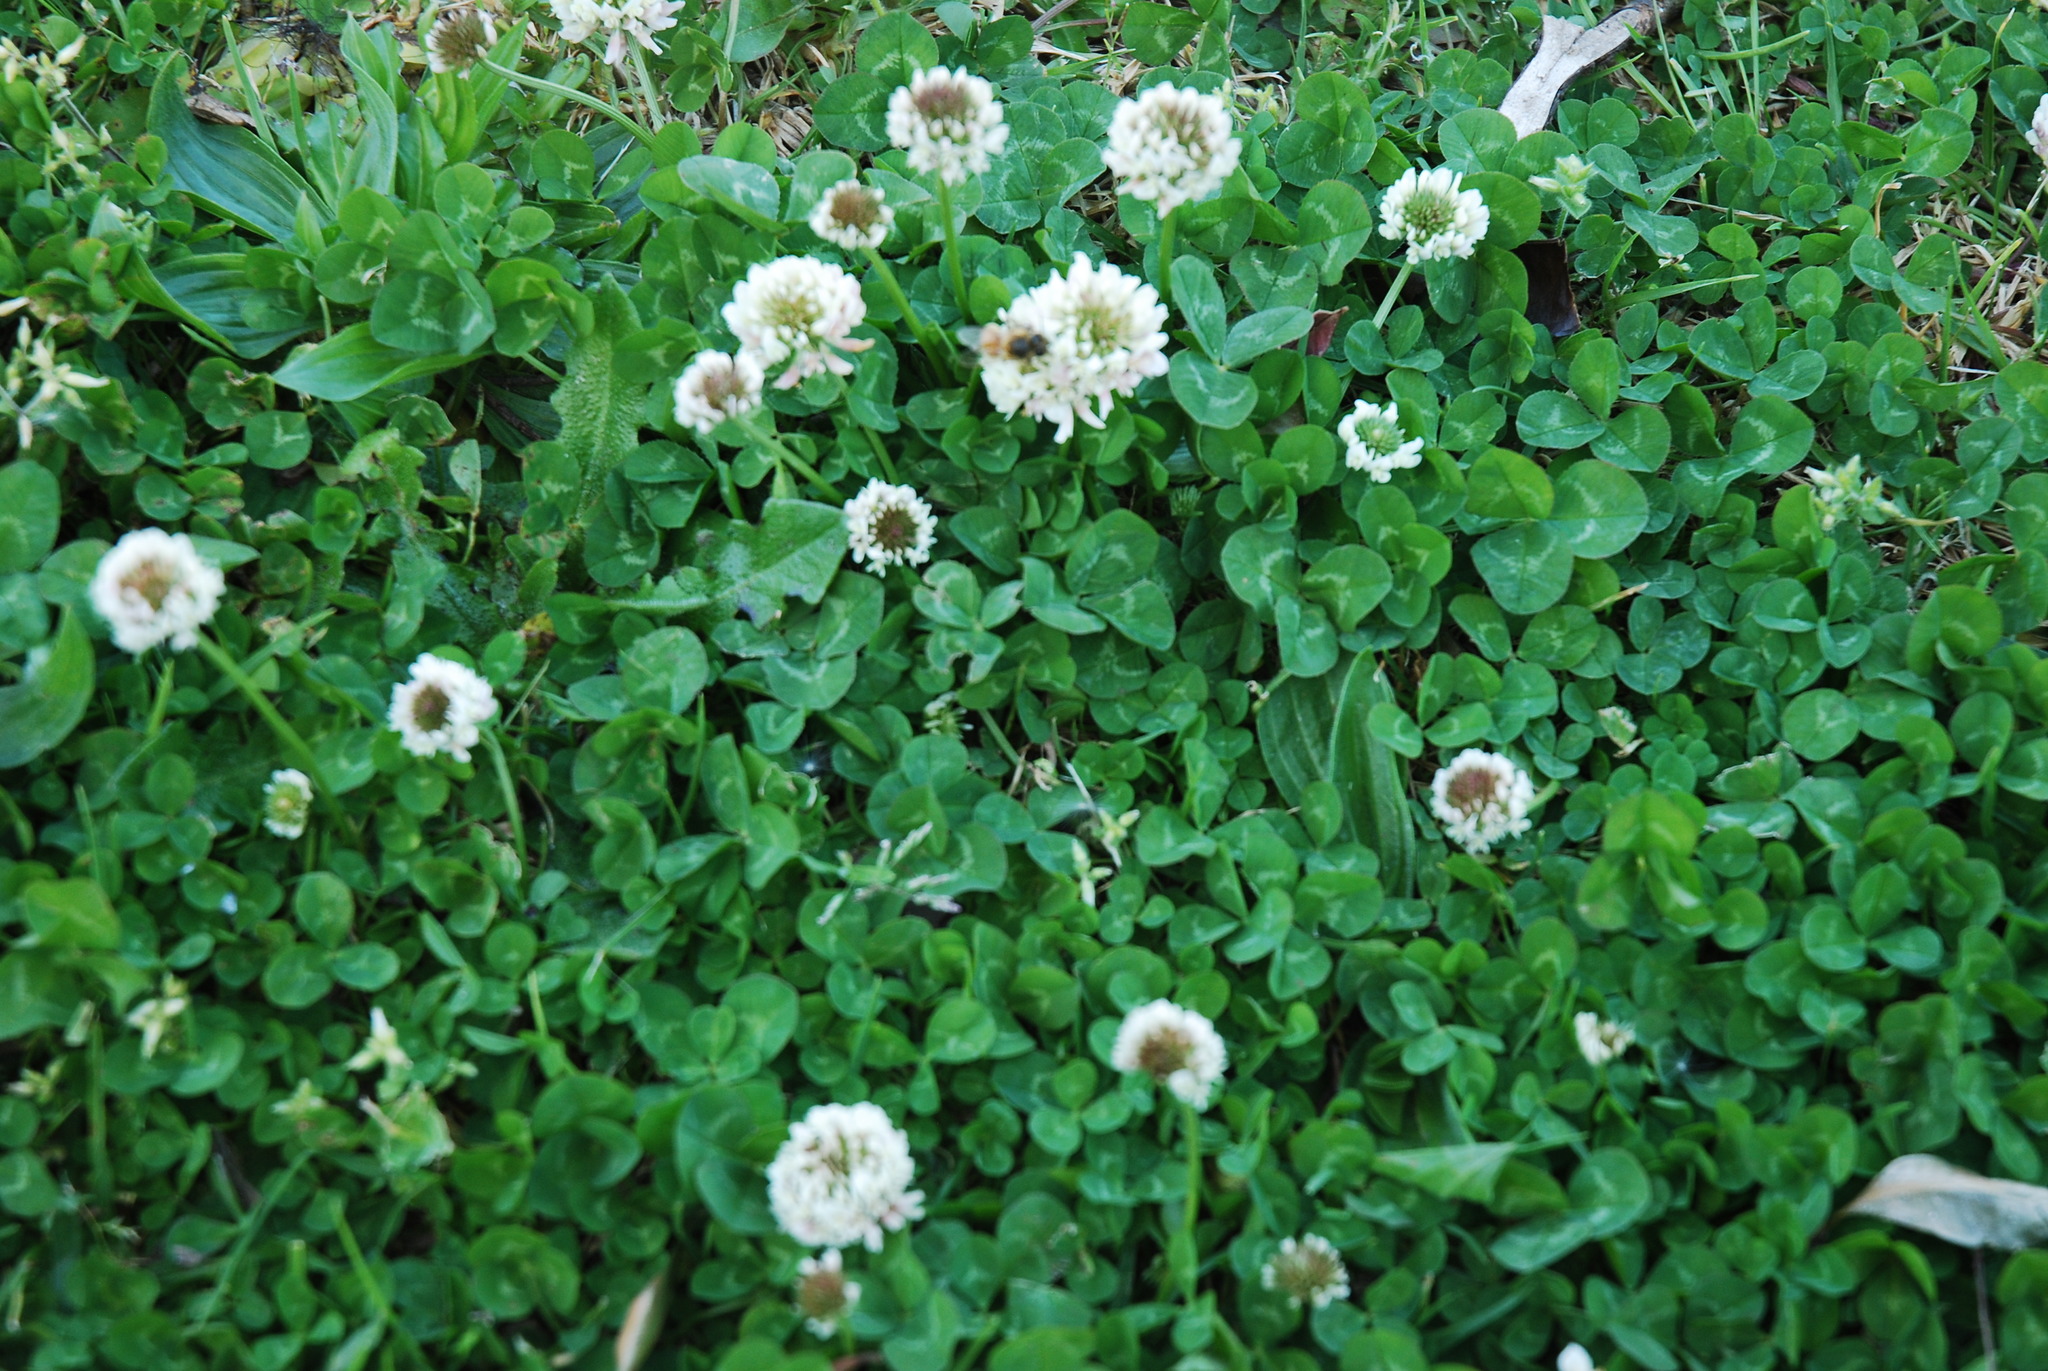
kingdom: Plantae
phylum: Tracheophyta
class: Magnoliopsida
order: Fabales
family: Fabaceae
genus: Trifolium
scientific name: Trifolium repens
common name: White clover
